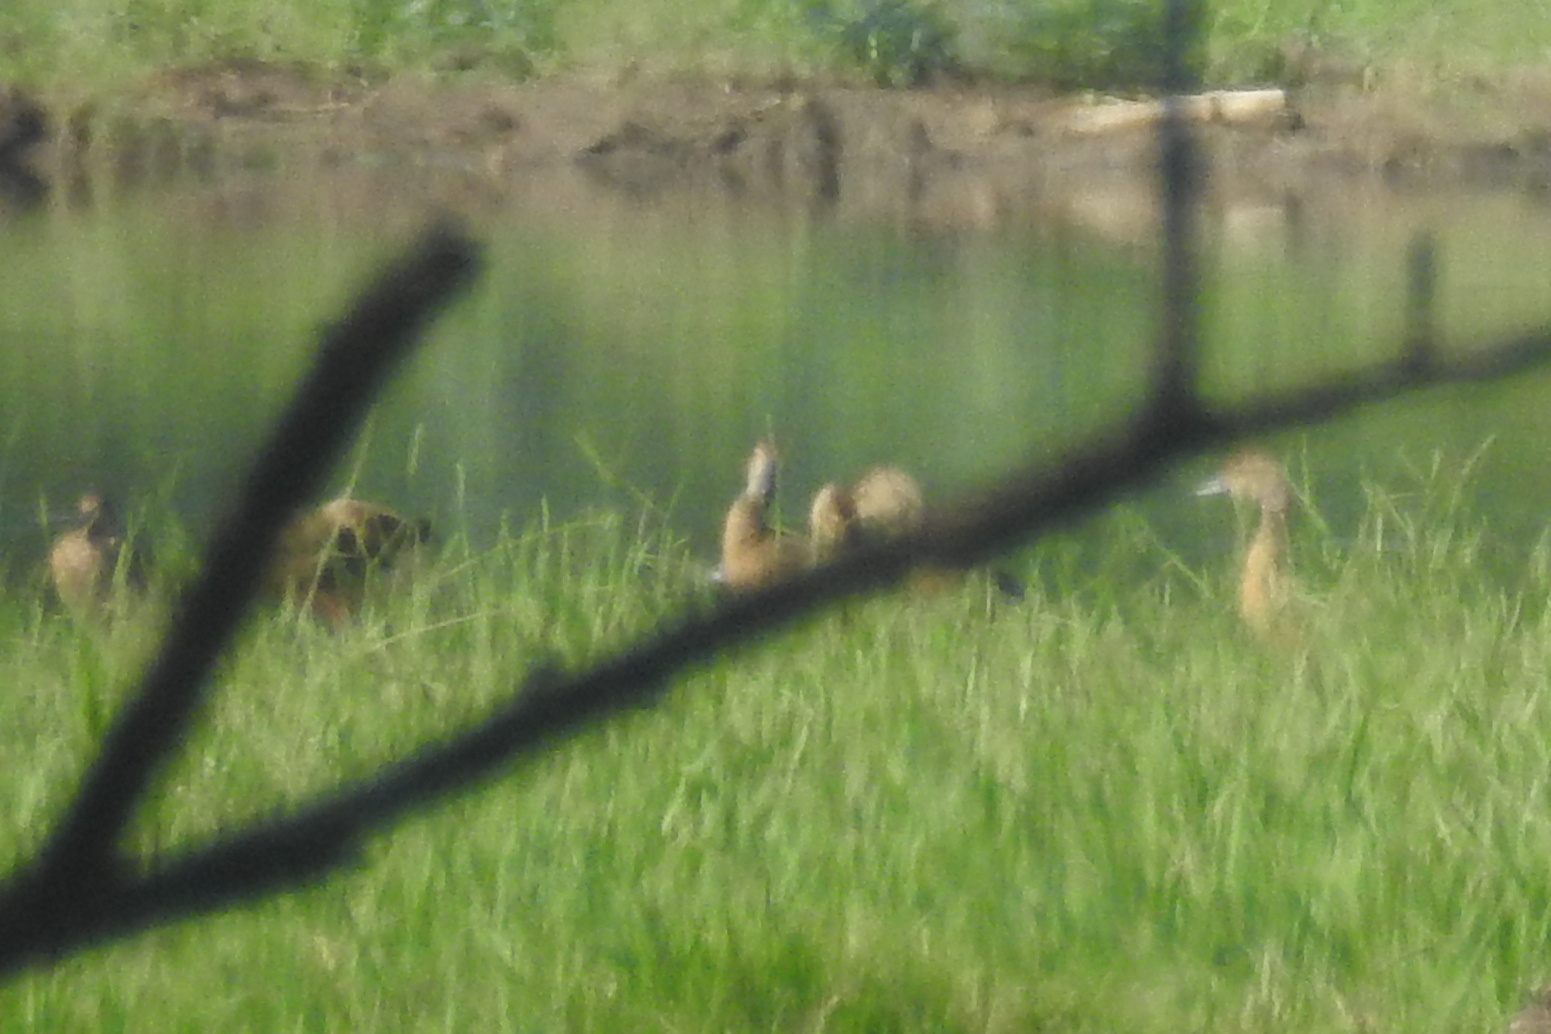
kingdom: Animalia
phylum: Chordata
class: Aves
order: Anseriformes
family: Anatidae
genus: Dendrocygna
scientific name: Dendrocygna javanica
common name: Lesser whistling-duck
